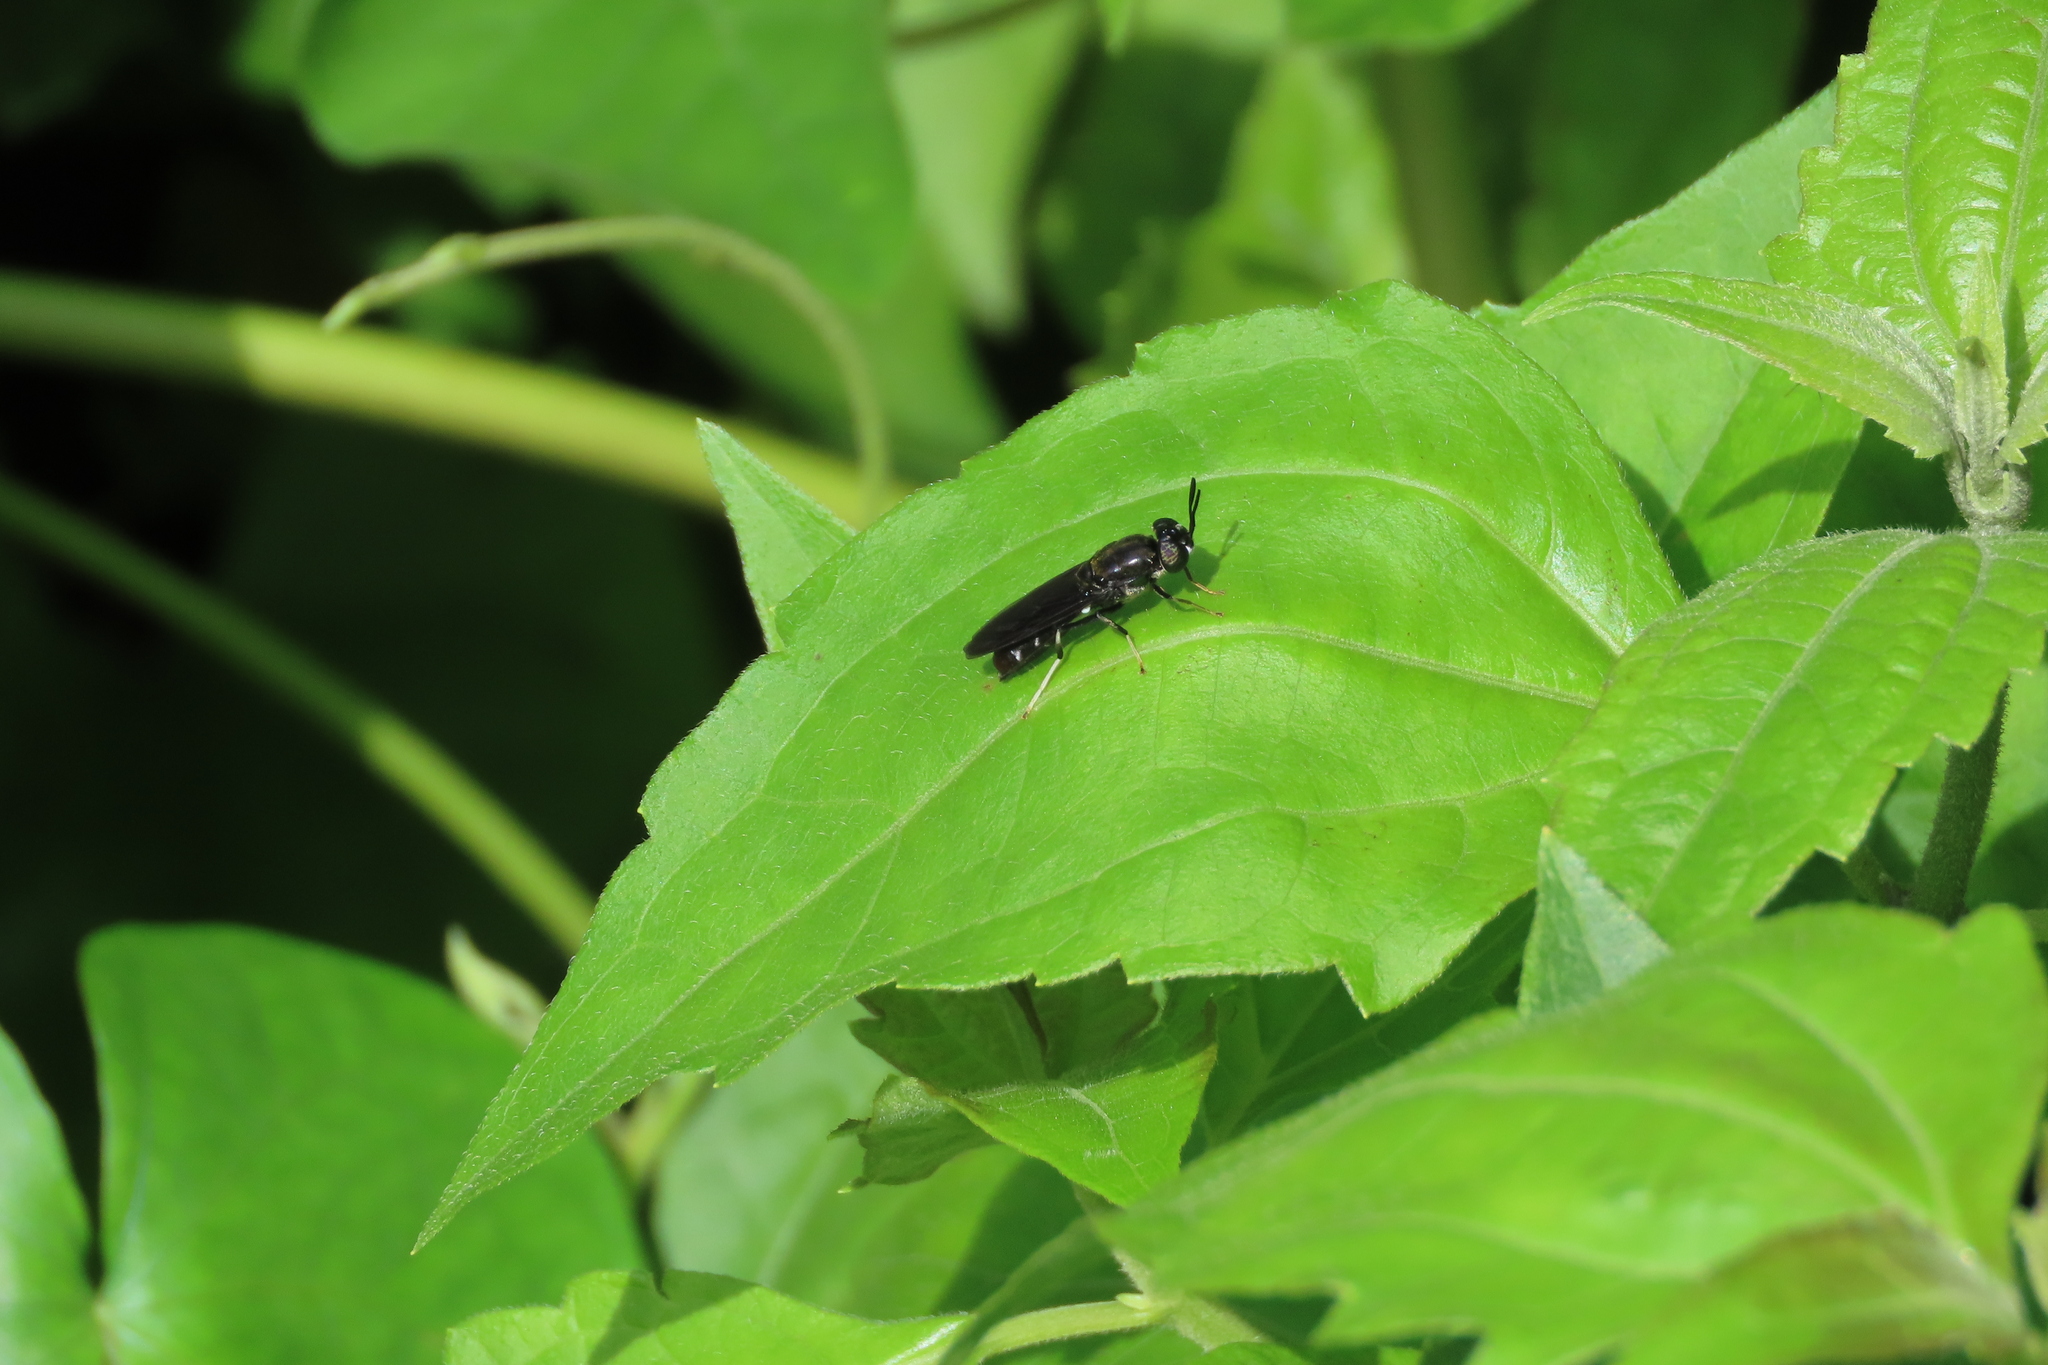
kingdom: Animalia
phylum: Arthropoda
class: Insecta
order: Diptera
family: Stratiomyidae
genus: Hermetia
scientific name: Hermetia illucens
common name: Black soldier fly
